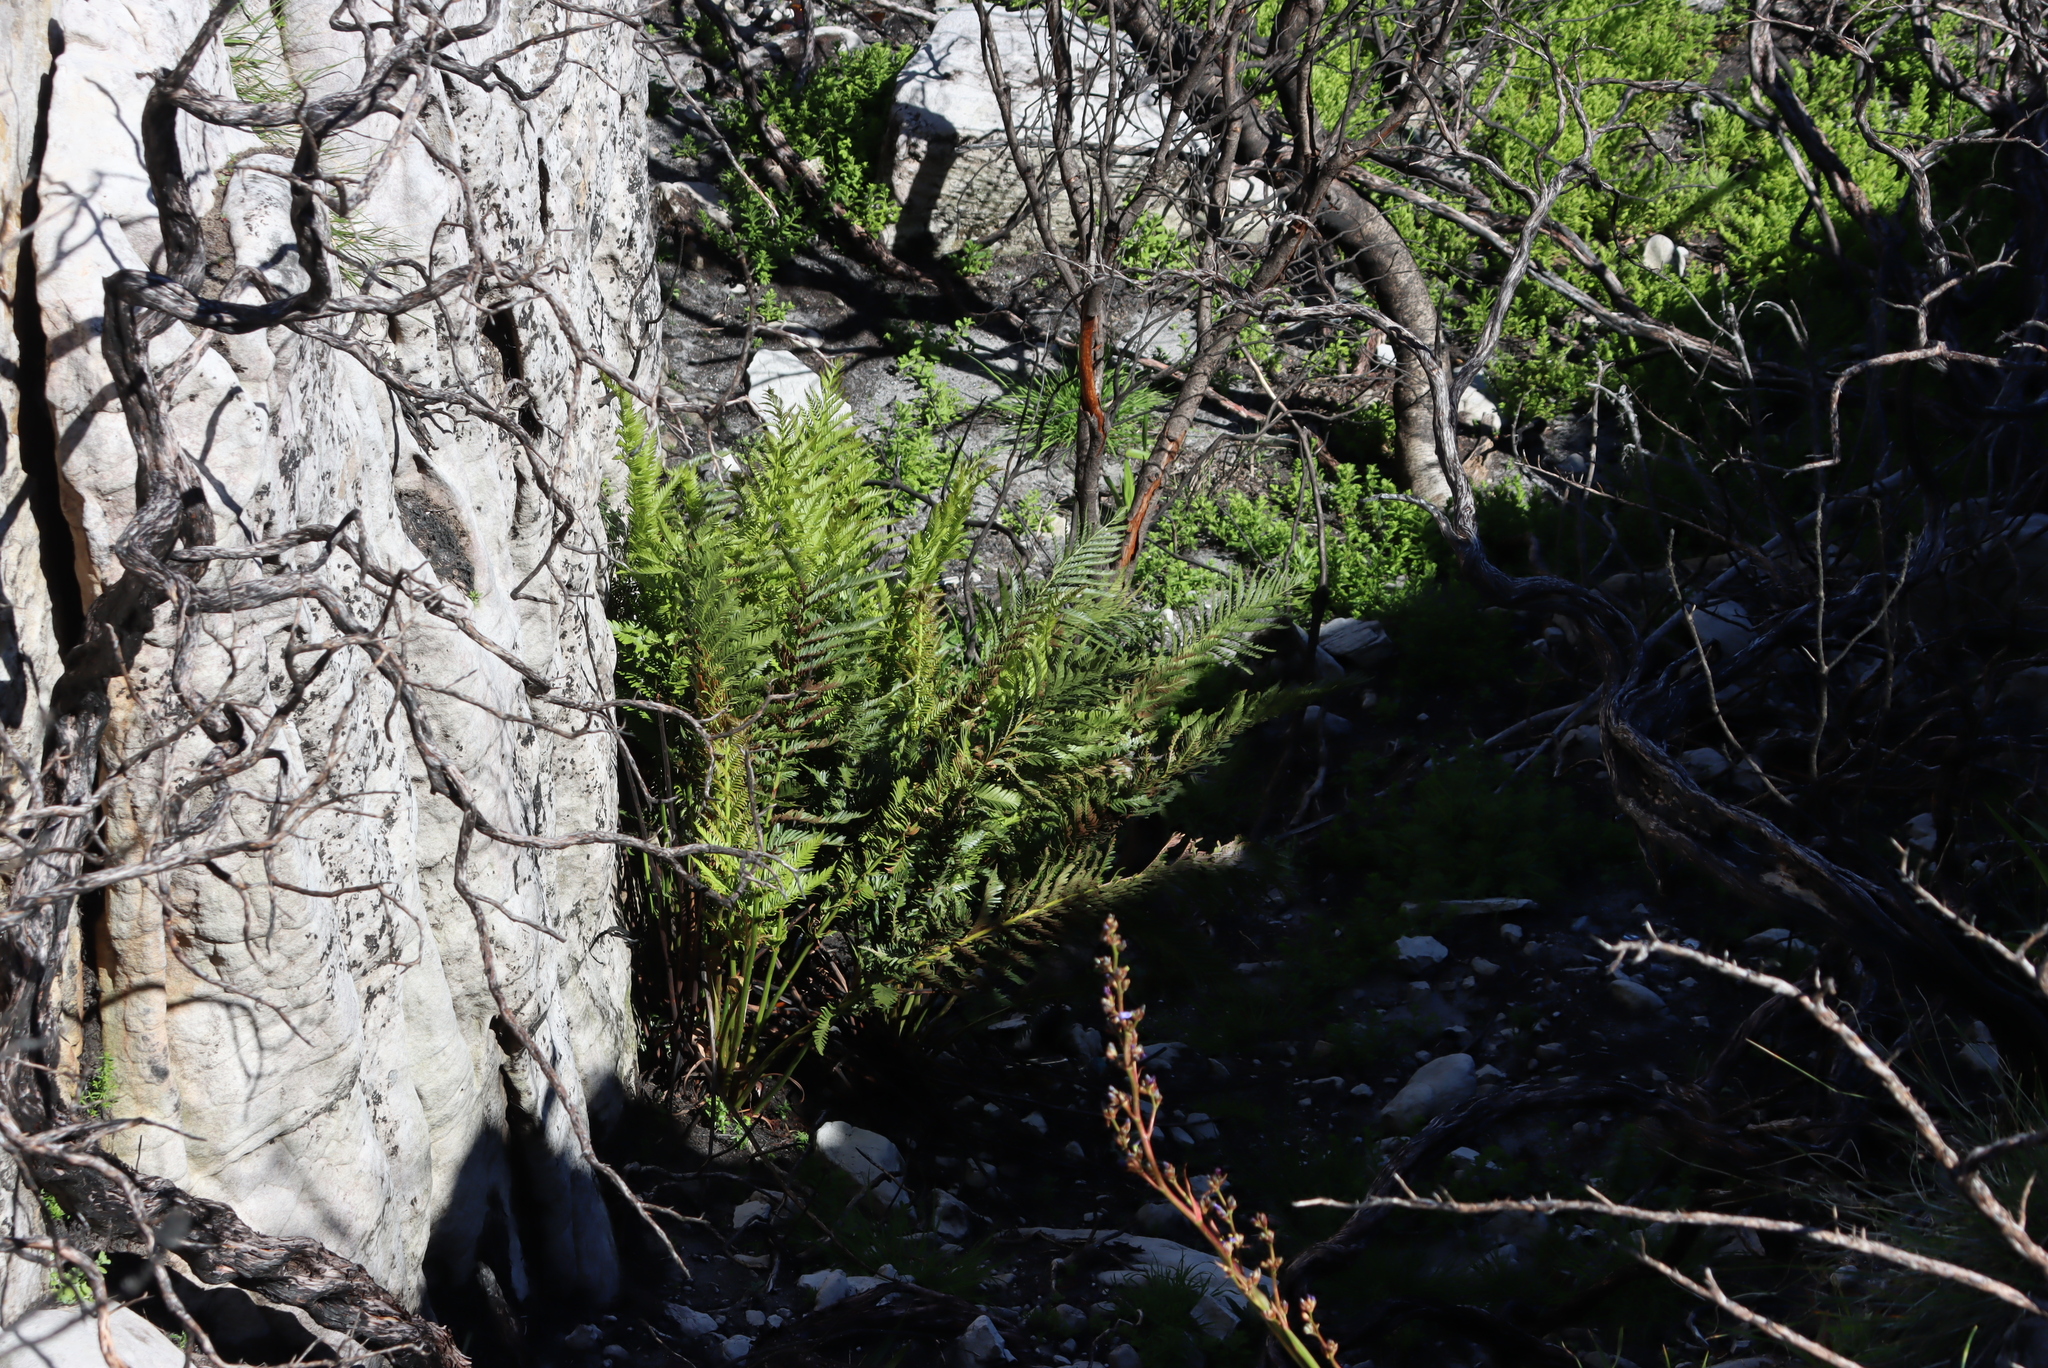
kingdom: Plantae
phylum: Tracheophyta
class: Polypodiopsida
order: Osmundales
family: Osmundaceae
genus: Todea
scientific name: Todea barbara
